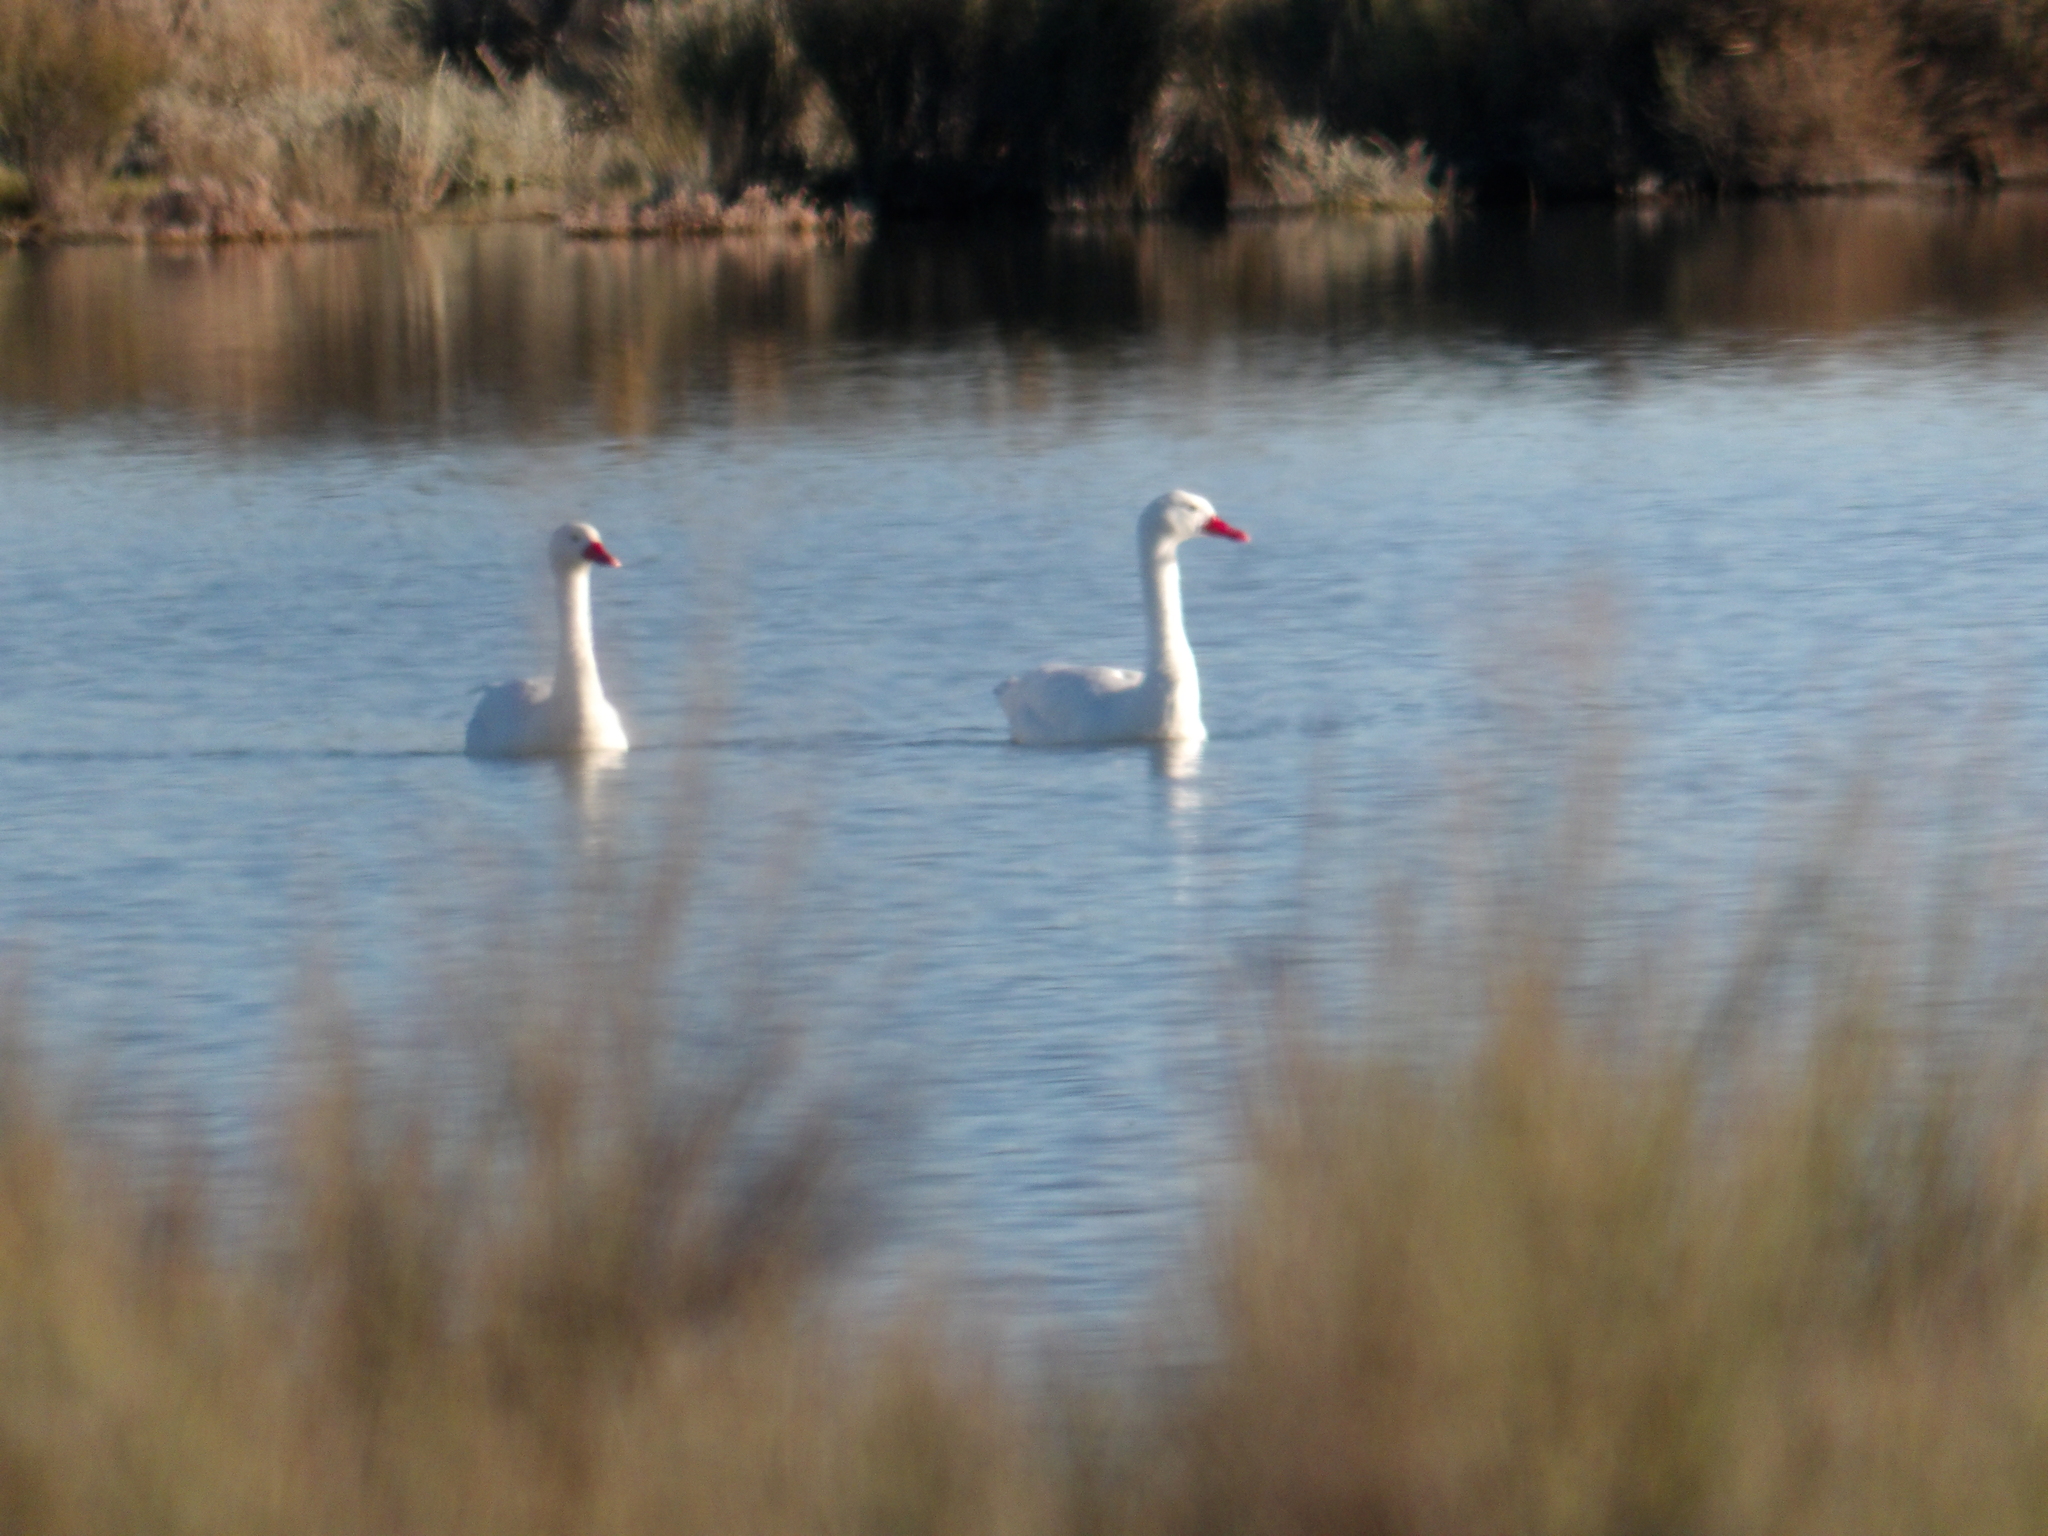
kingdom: Animalia
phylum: Chordata
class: Aves
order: Anseriformes
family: Anatidae
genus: Coscoroba
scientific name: Coscoroba coscoroba
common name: Coscoroba swan
